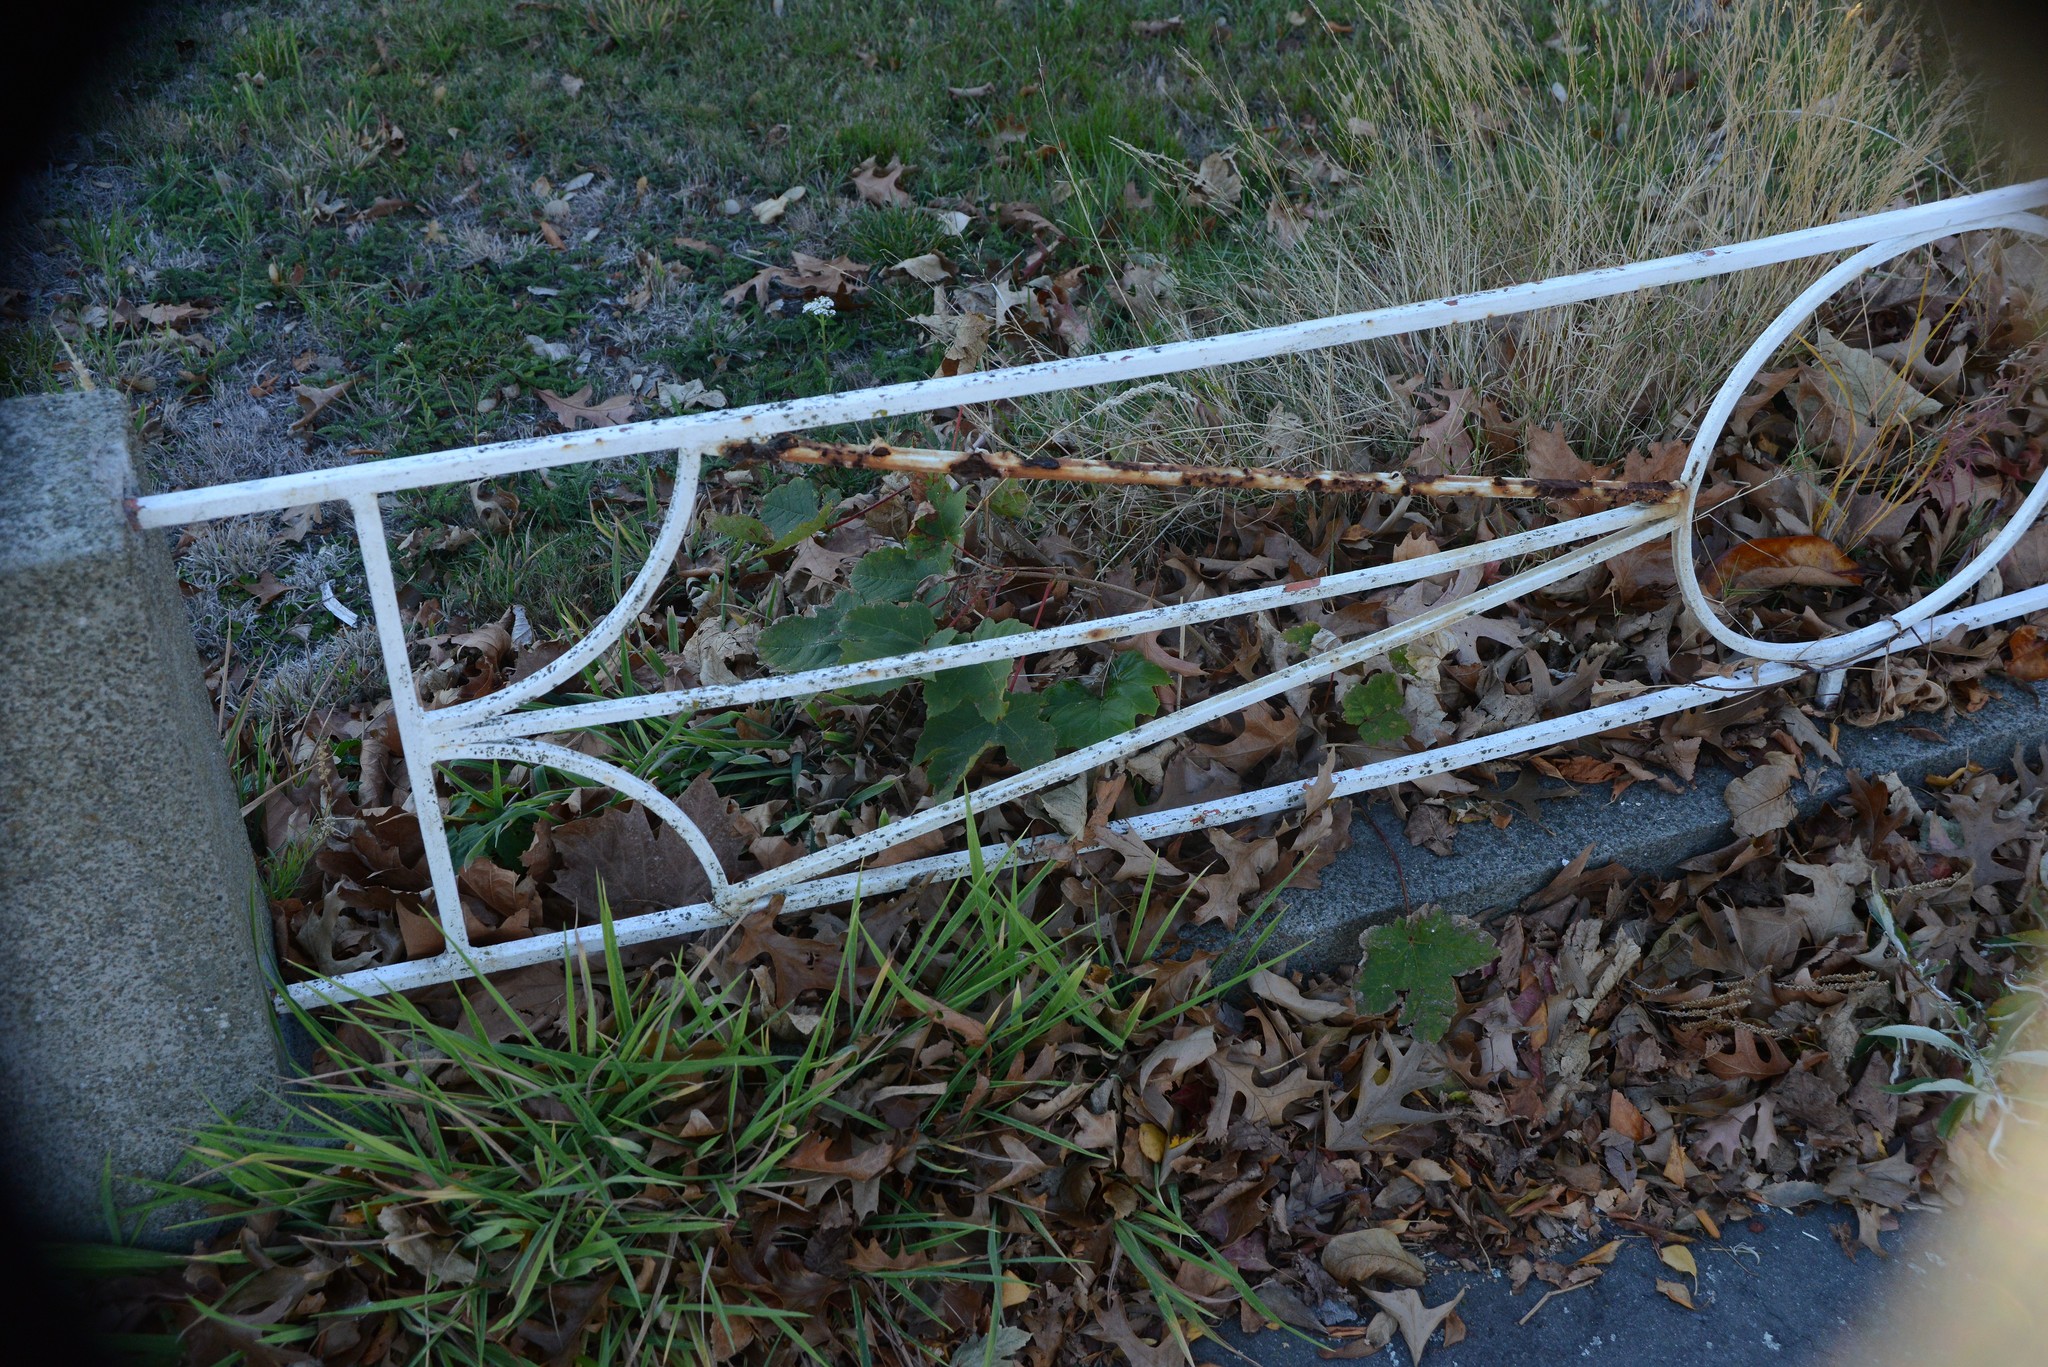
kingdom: Plantae
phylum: Tracheophyta
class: Magnoliopsida
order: Sapindales
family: Sapindaceae
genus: Acer
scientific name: Acer pseudoplatanus
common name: Sycamore
